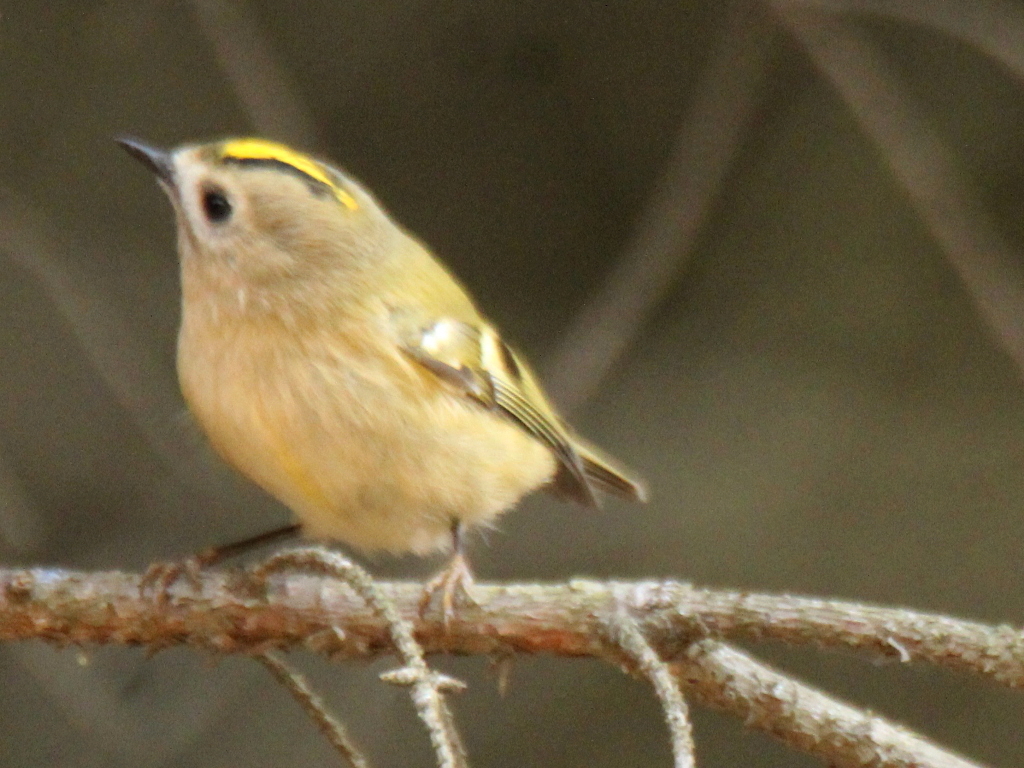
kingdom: Animalia
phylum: Chordata
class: Aves
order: Passeriformes
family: Regulidae
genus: Regulus
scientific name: Regulus regulus
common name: Goldcrest
